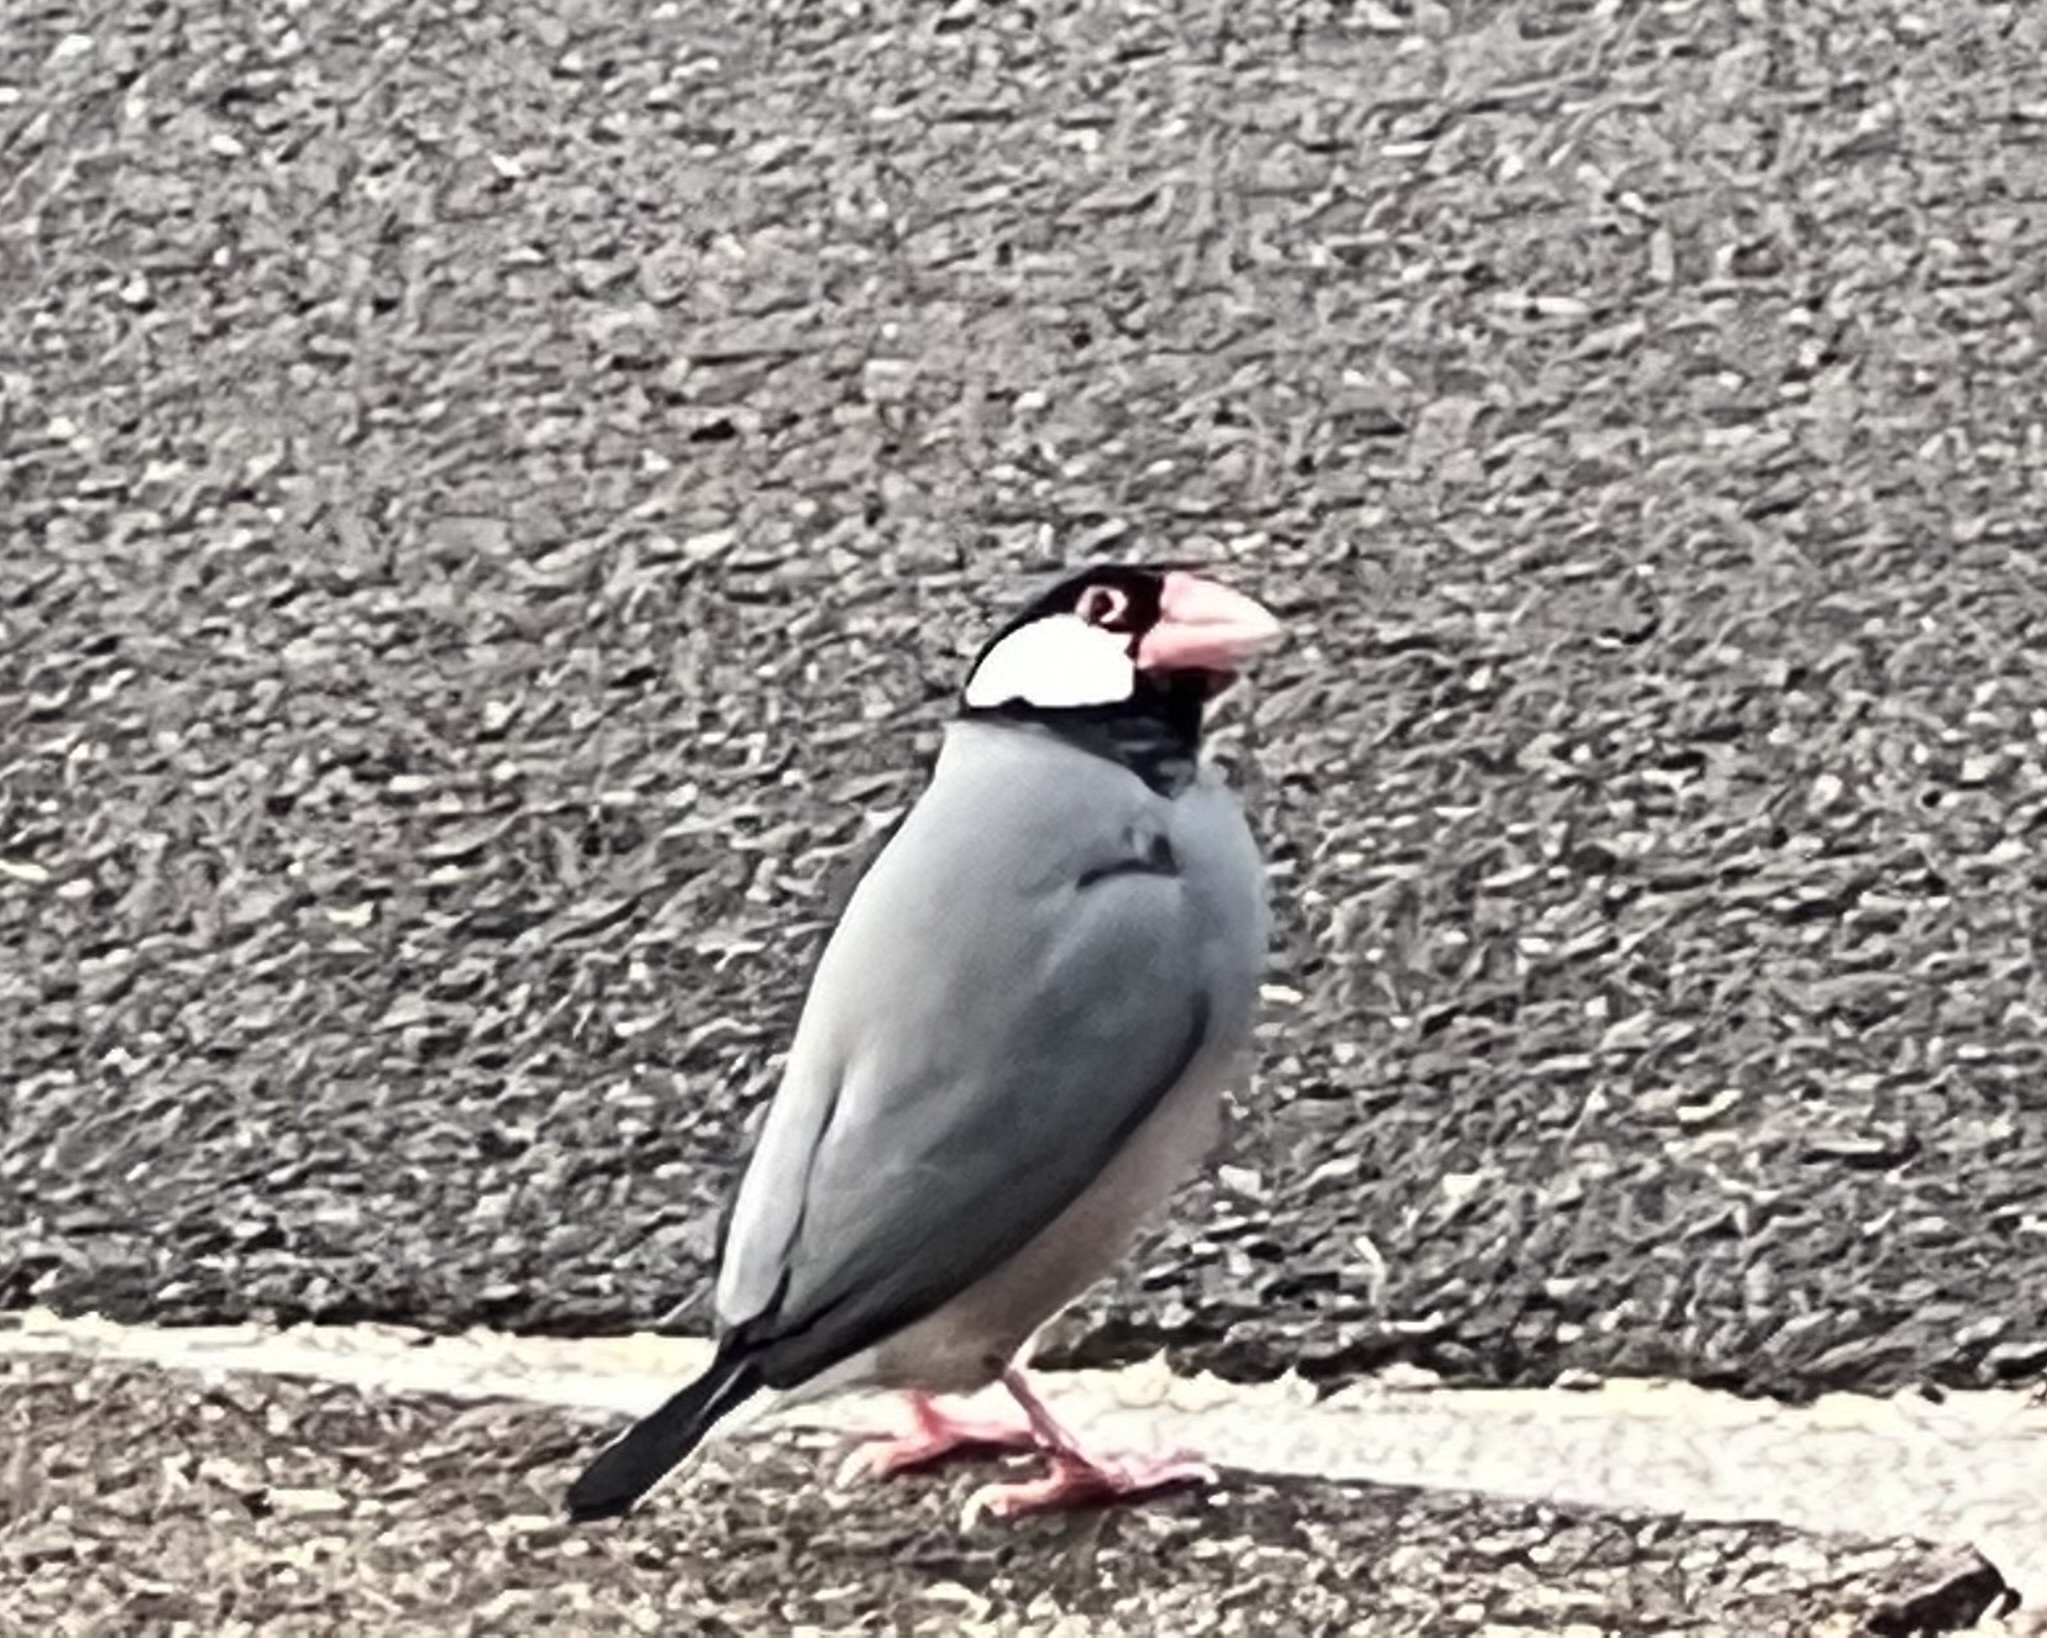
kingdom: Animalia
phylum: Chordata
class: Aves
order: Passeriformes
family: Estrildidae
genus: Lonchura
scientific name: Lonchura oryzivora
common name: Java sparrow
